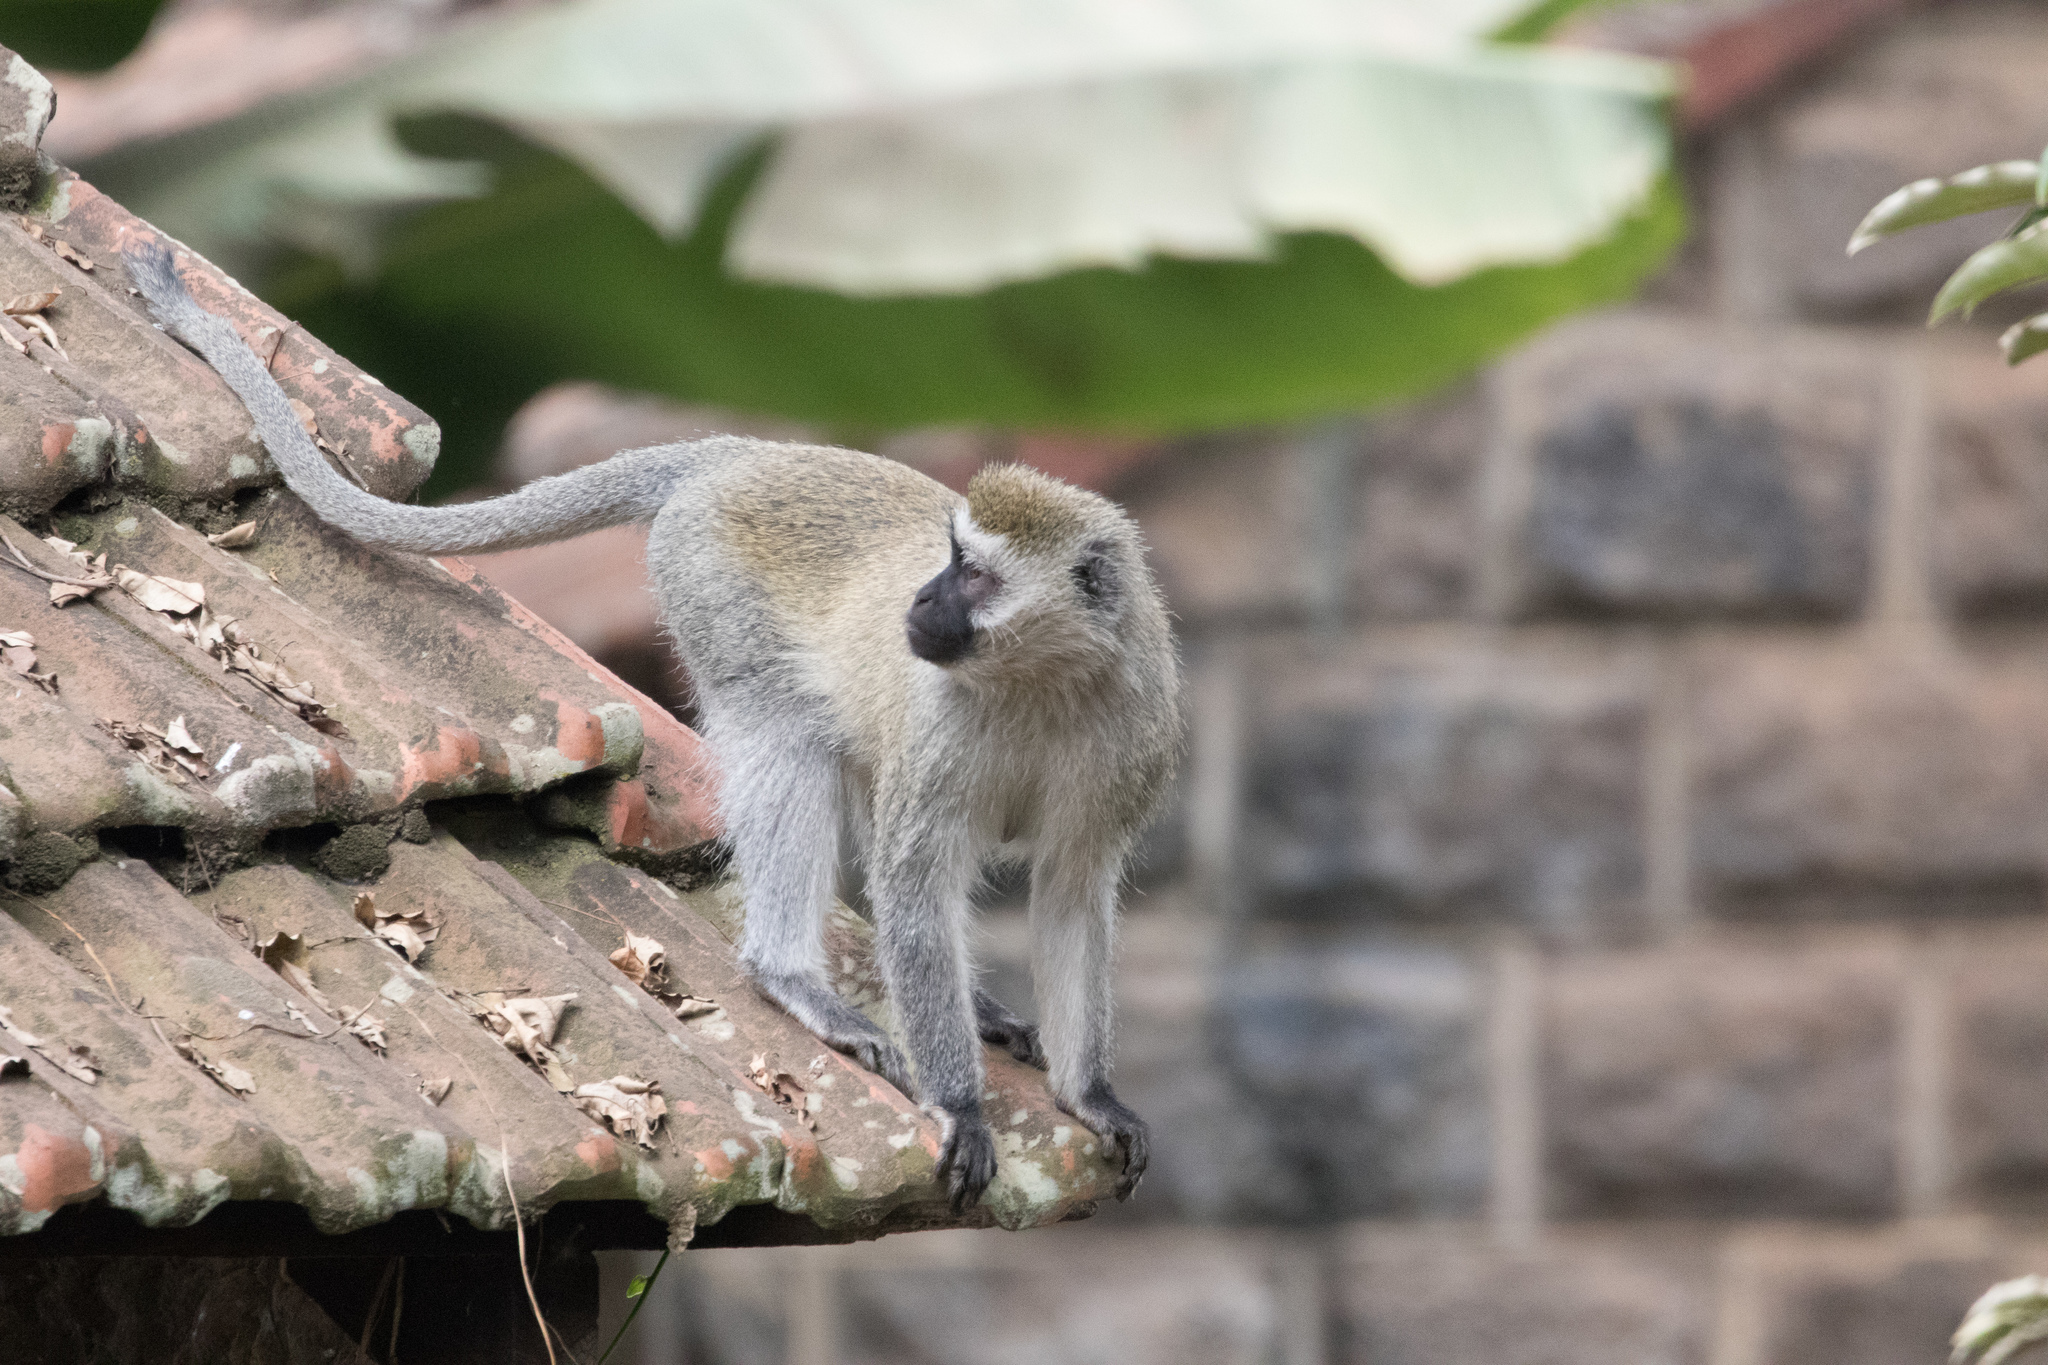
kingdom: Animalia
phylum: Chordata
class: Mammalia
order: Primates
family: Cercopithecidae
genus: Chlorocebus
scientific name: Chlorocebus pygerythrus
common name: Vervet monkey
